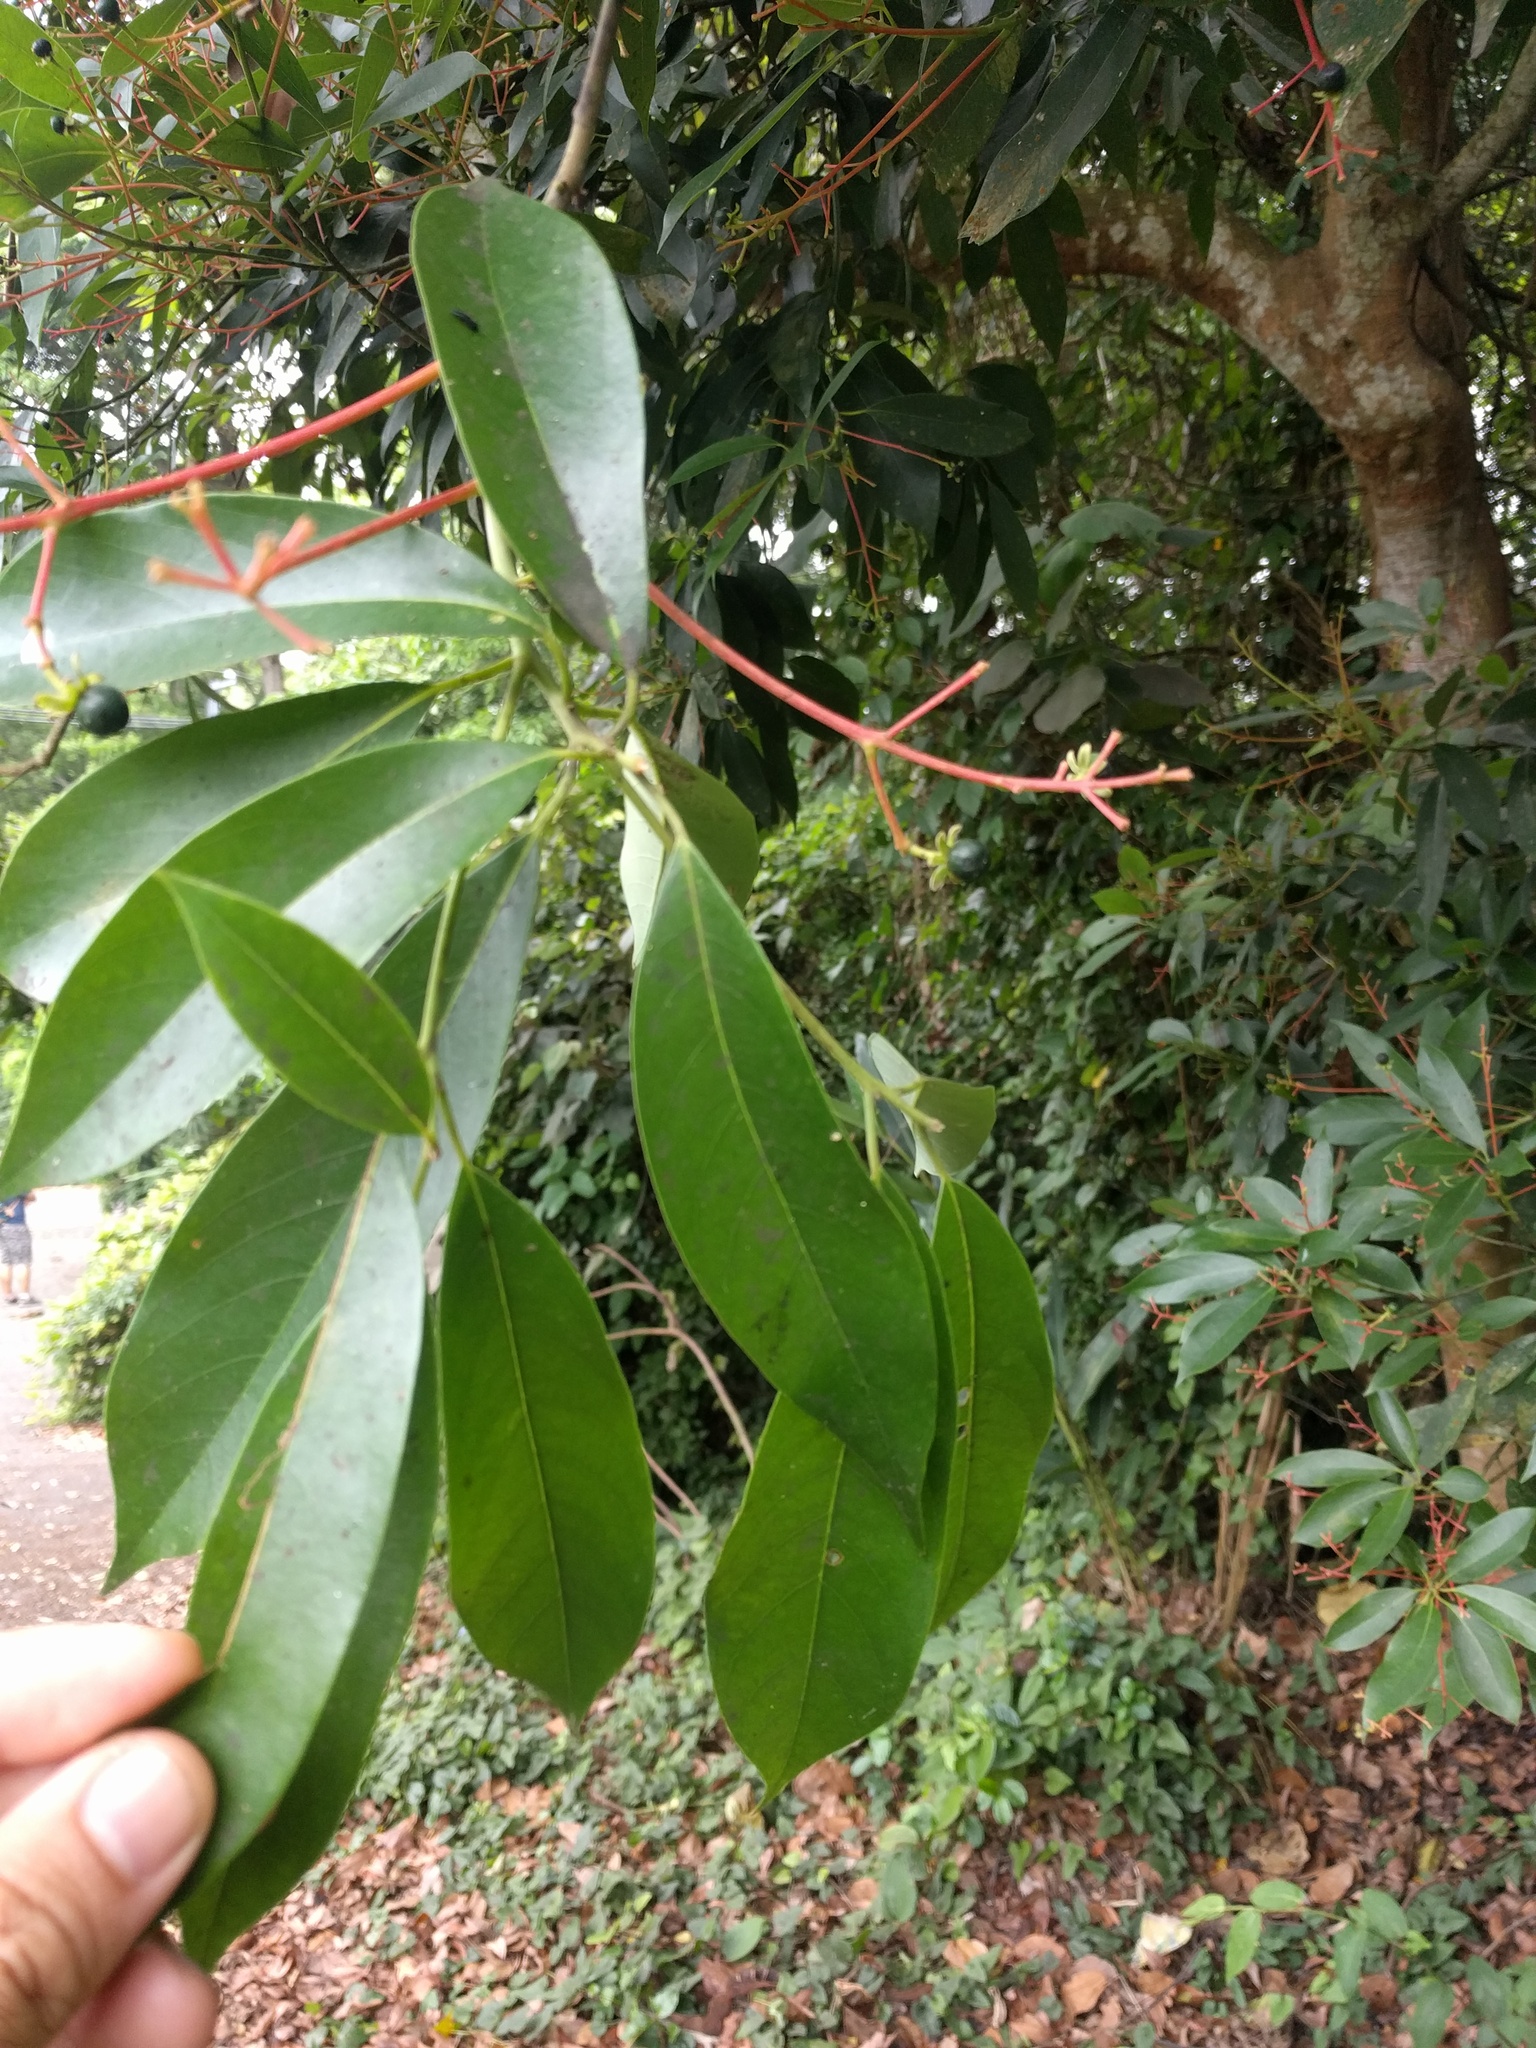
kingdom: Plantae
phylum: Tracheophyta
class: Magnoliopsida
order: Laurales
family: Lauraceae
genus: Machilus
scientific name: Machilus thunbergii
